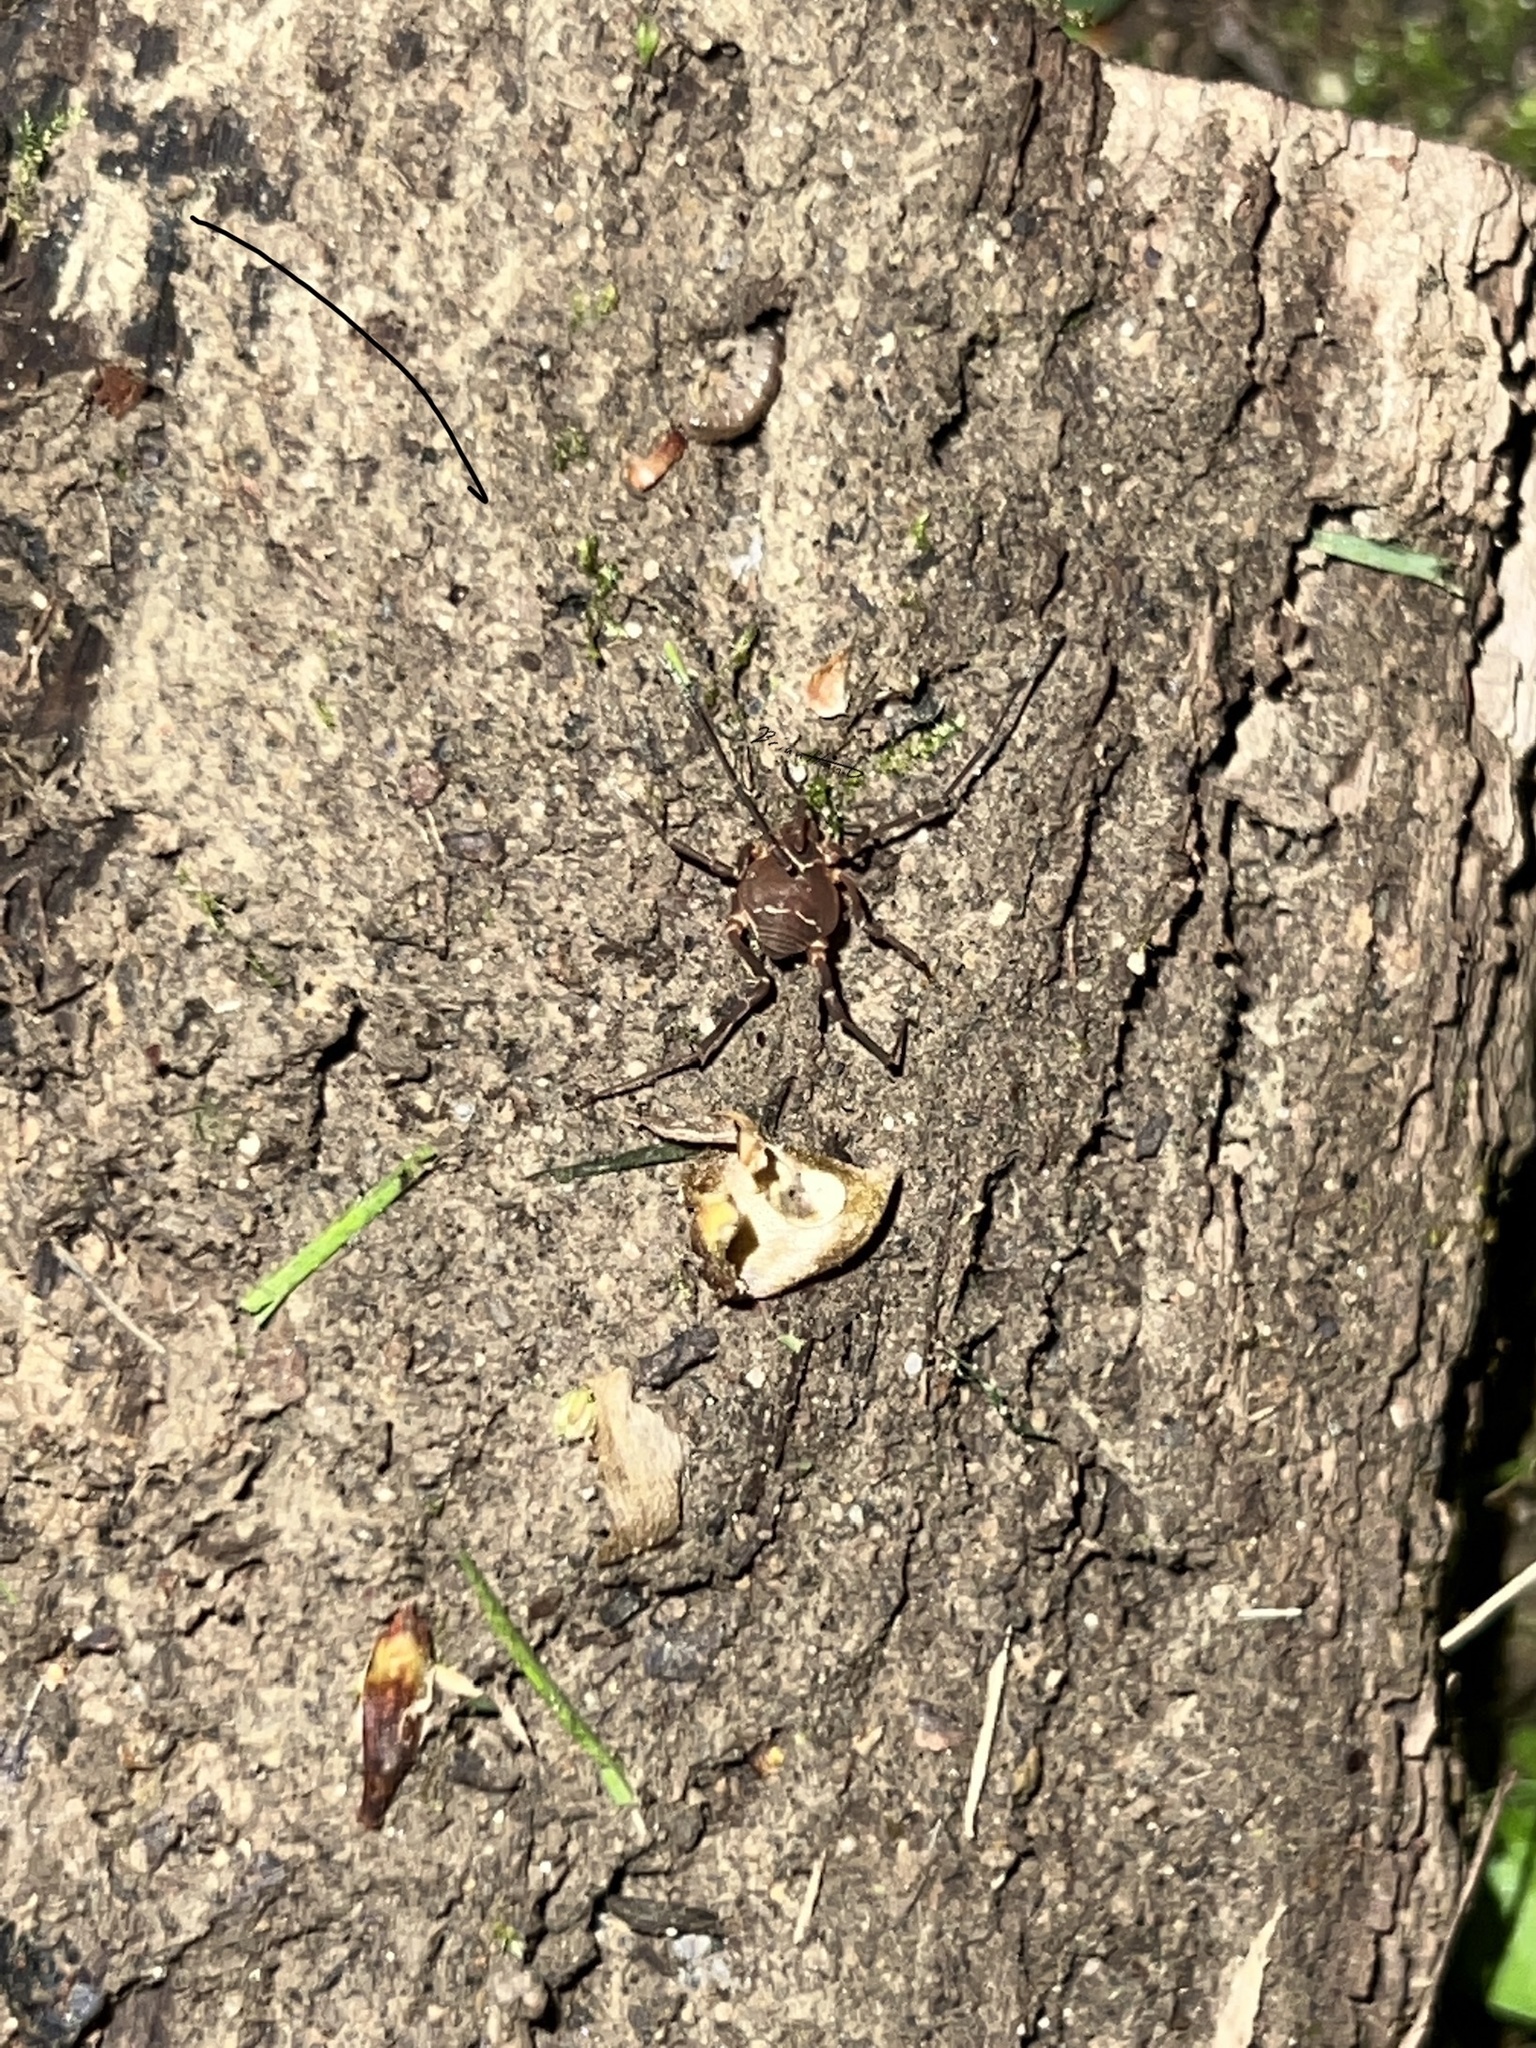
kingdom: Animalia
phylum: Arthropoda
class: Arachnida
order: Opiliones
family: Cosmetidae
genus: Libitioides
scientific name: Libitioides sayi
